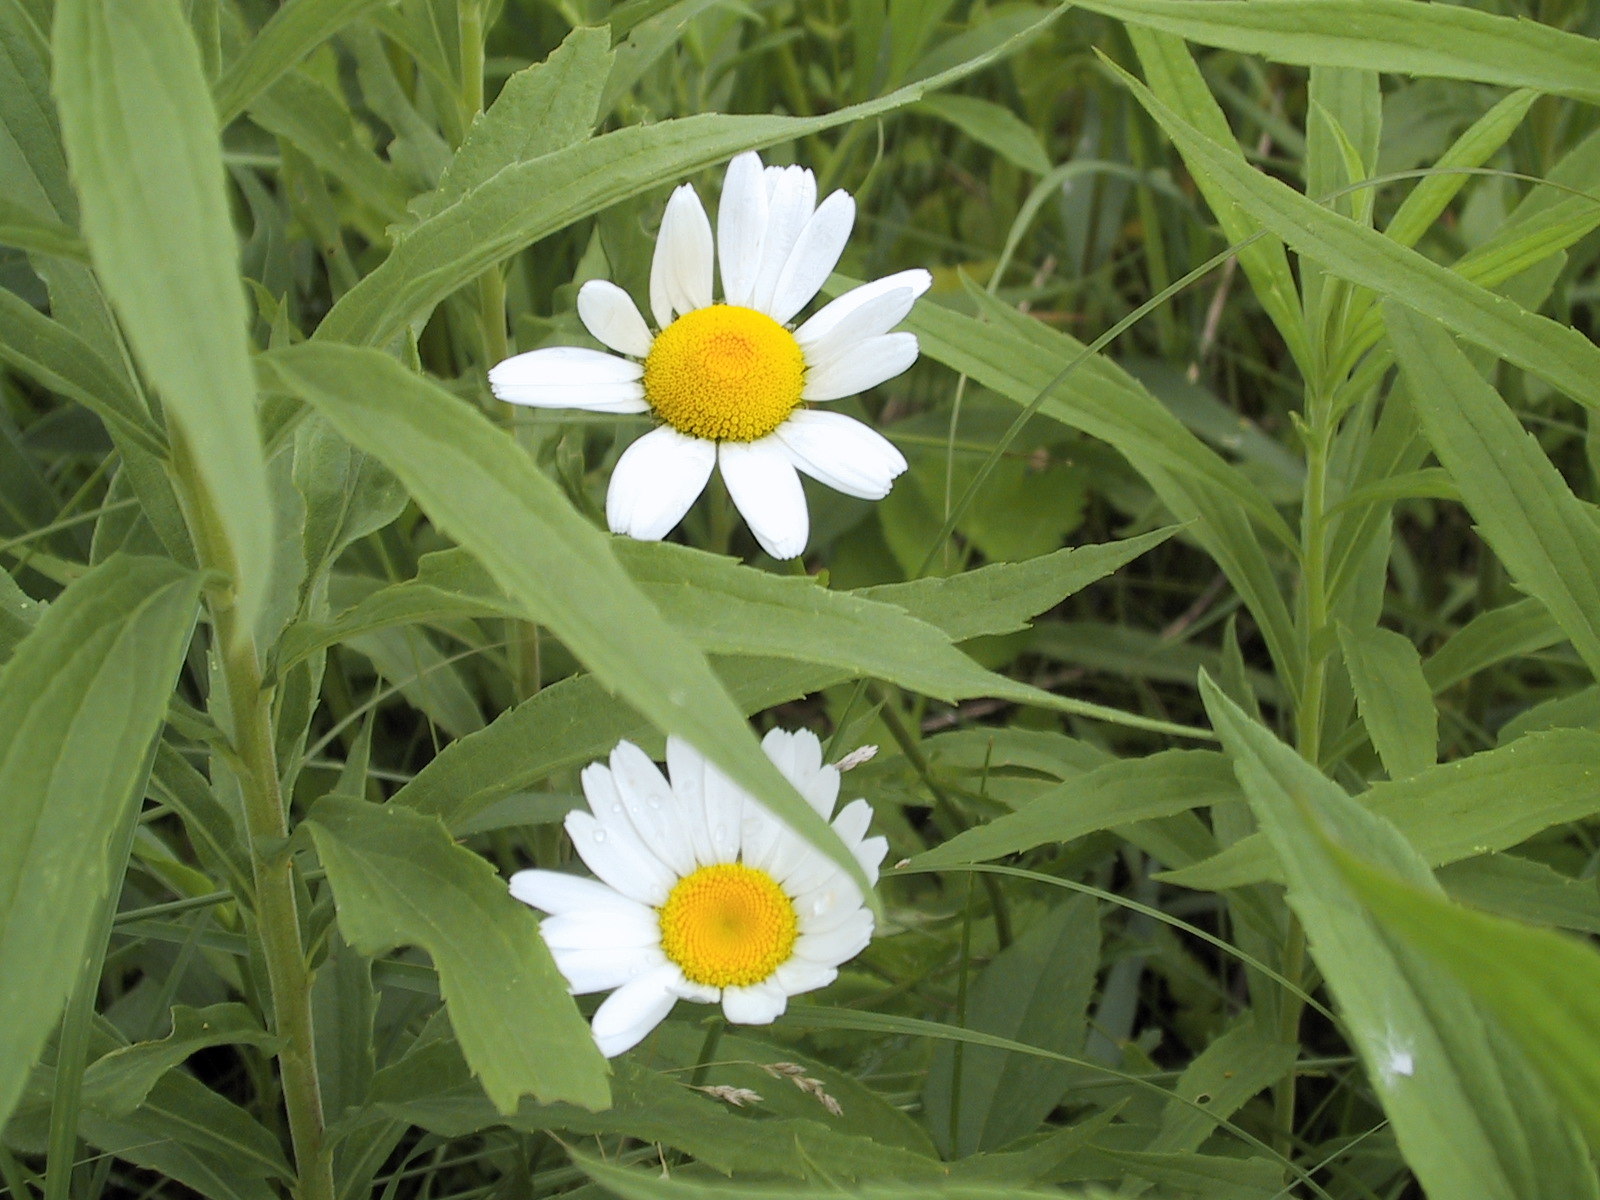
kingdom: Plantae
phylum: Tracheophyta
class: Magnoliopsida
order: Asterales
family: Asteraceae
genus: Leucanthemum
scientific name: Leucanthemum vulgare
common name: Oxeye daisy
